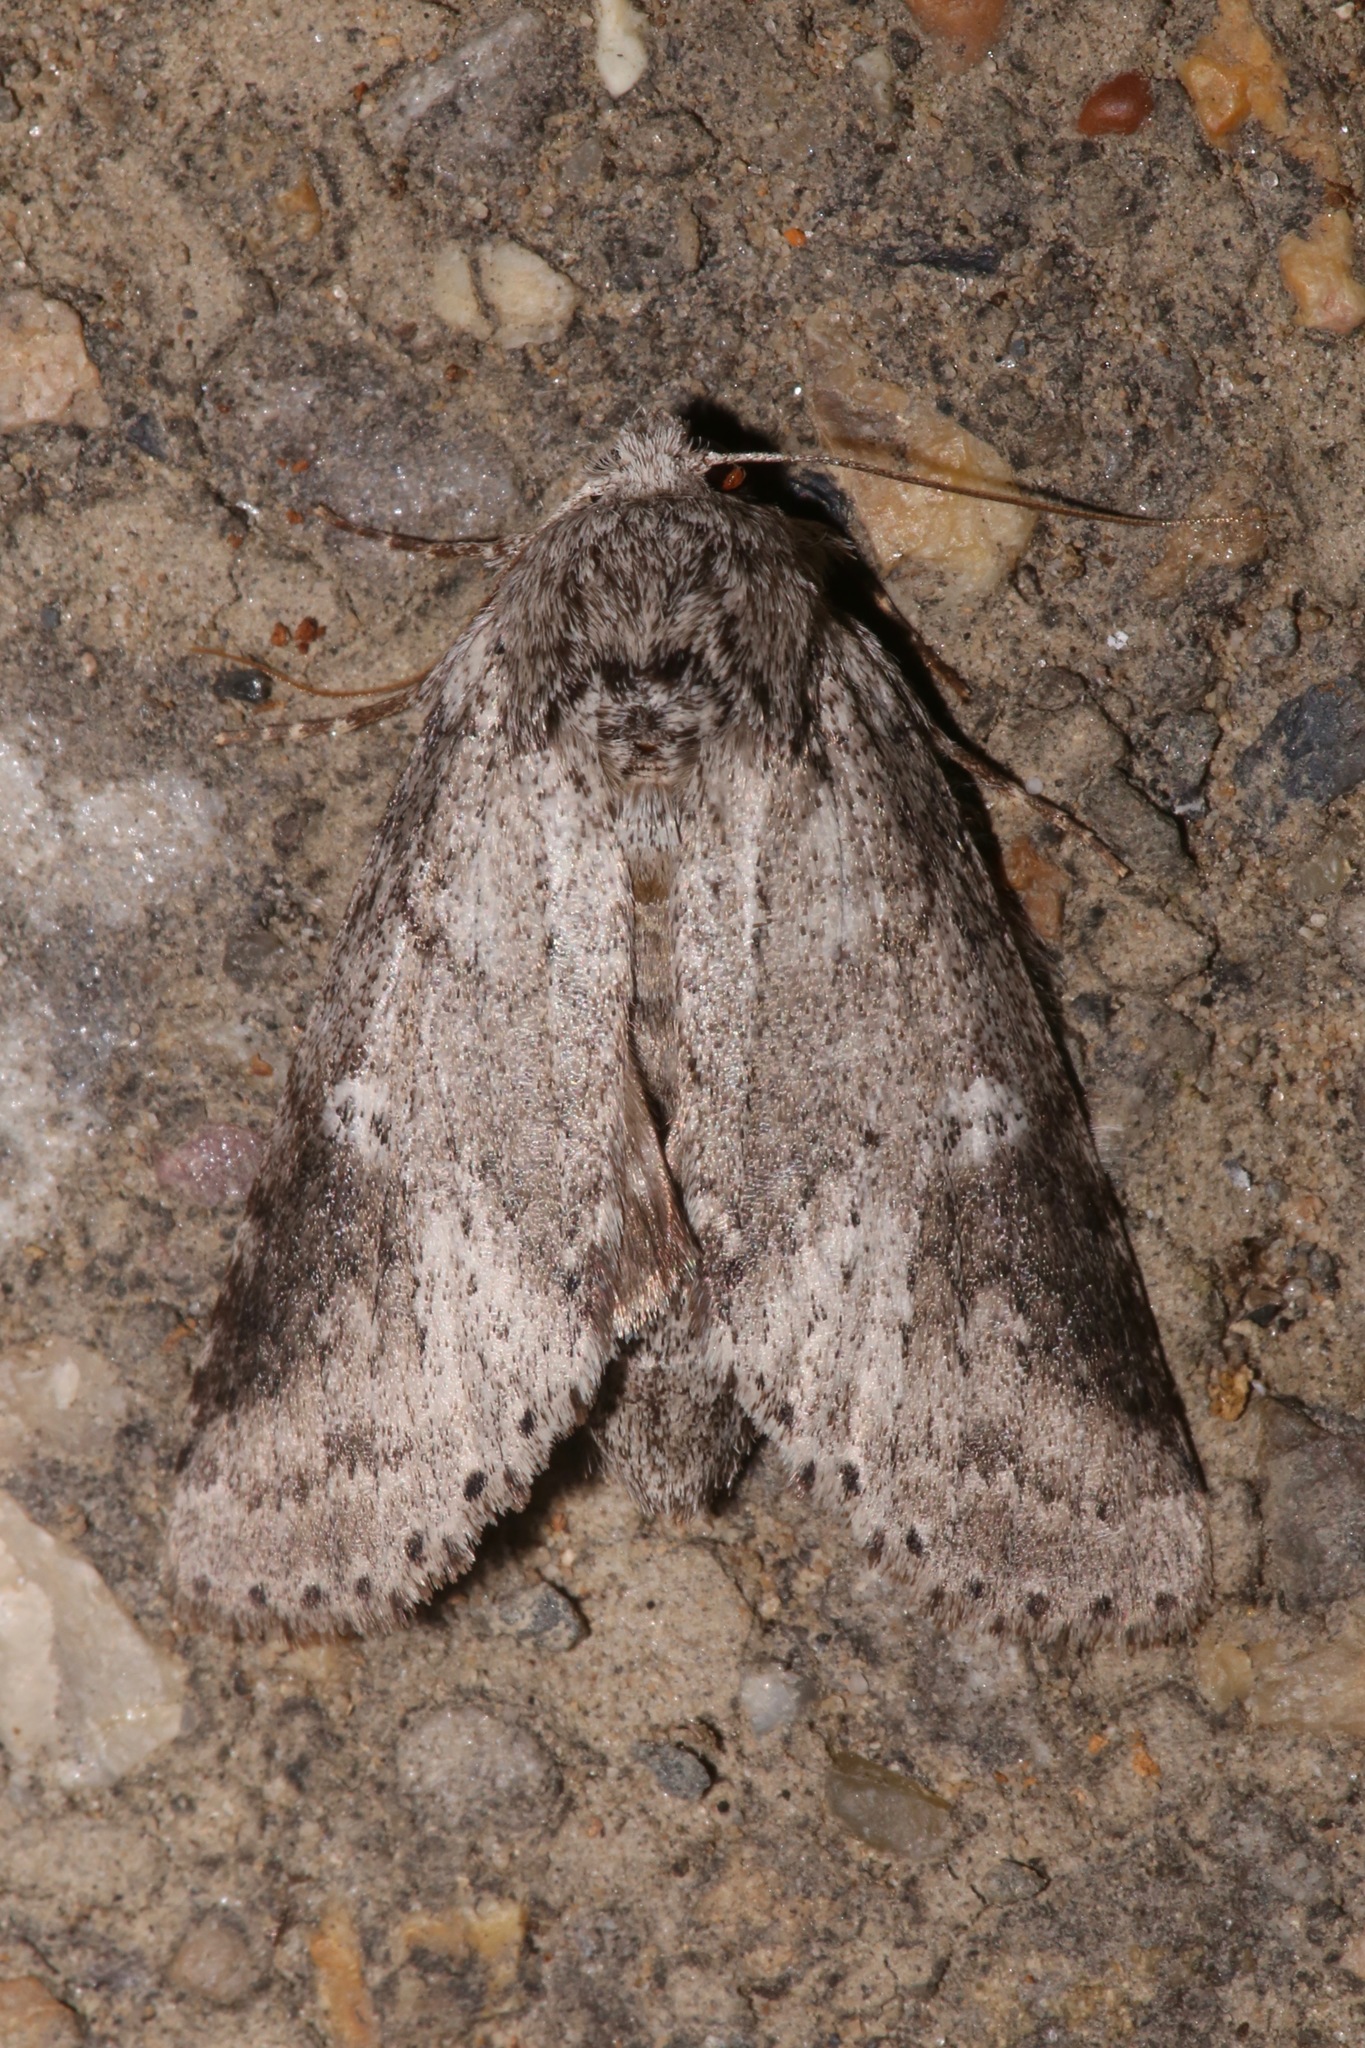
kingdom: Animalia
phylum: Arthropoda
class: Insecta
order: Lepidoptera
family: Notodontidae
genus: Lochmaeus
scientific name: Lochmaeus manteo
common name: Variable oakleaf caterpillar moth
